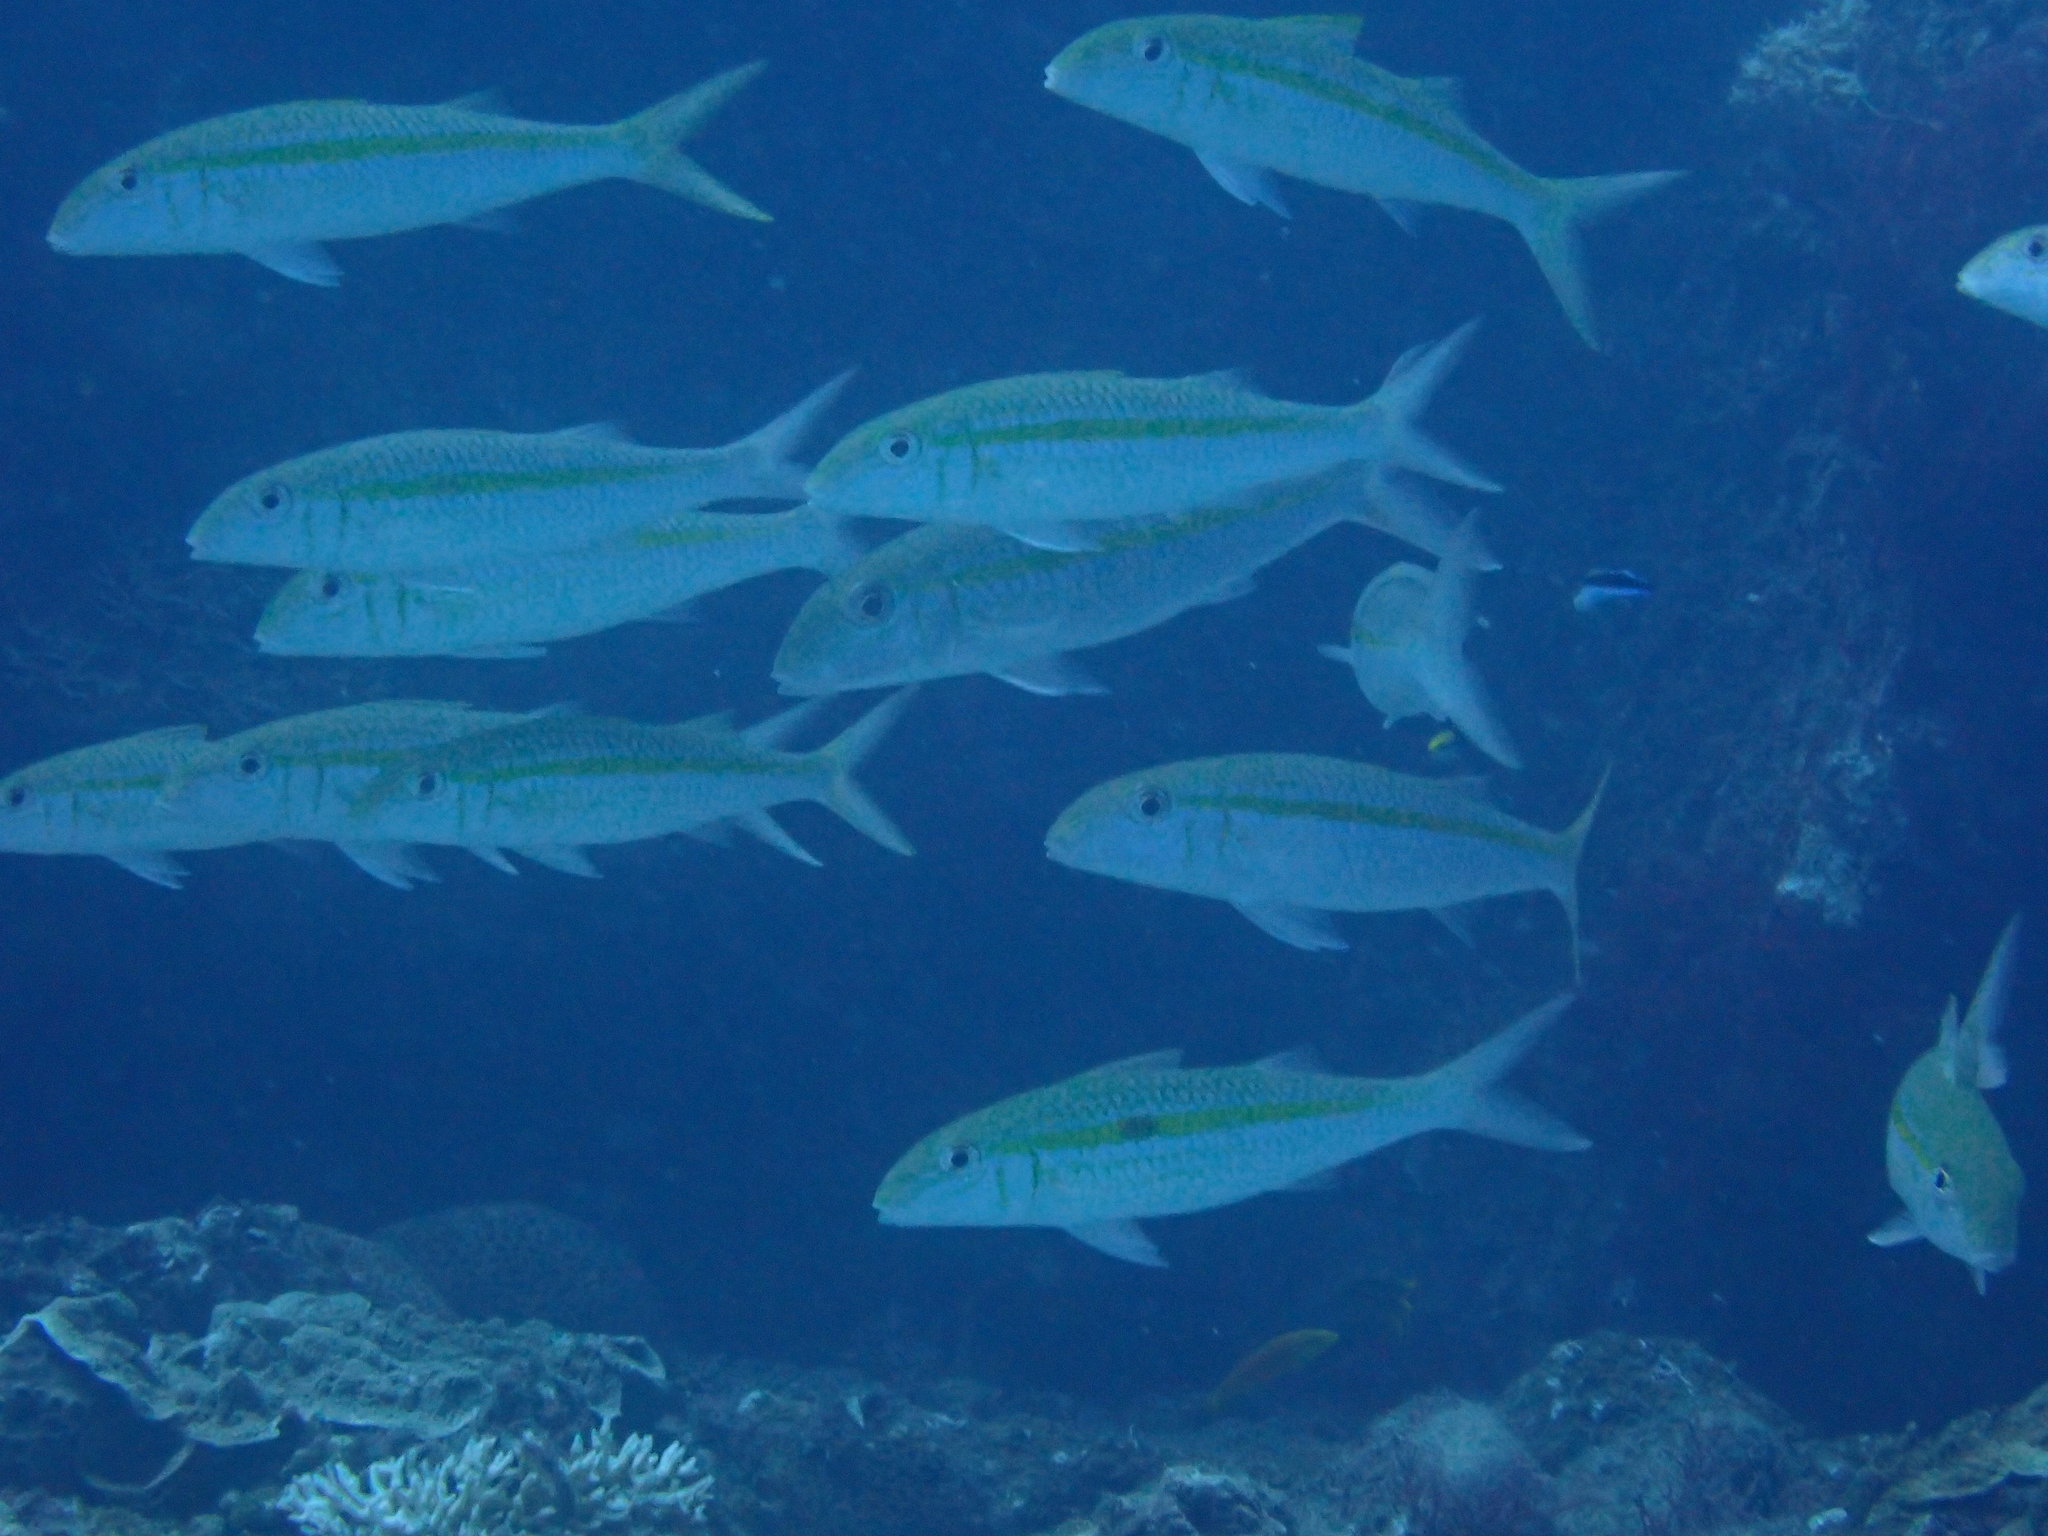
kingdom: Animalia
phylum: Chordata
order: Perciformes
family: Mullidae
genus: Mulloidichthys
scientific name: Mulloidichthys flavolineatus
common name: Yellowstripe goatfish
